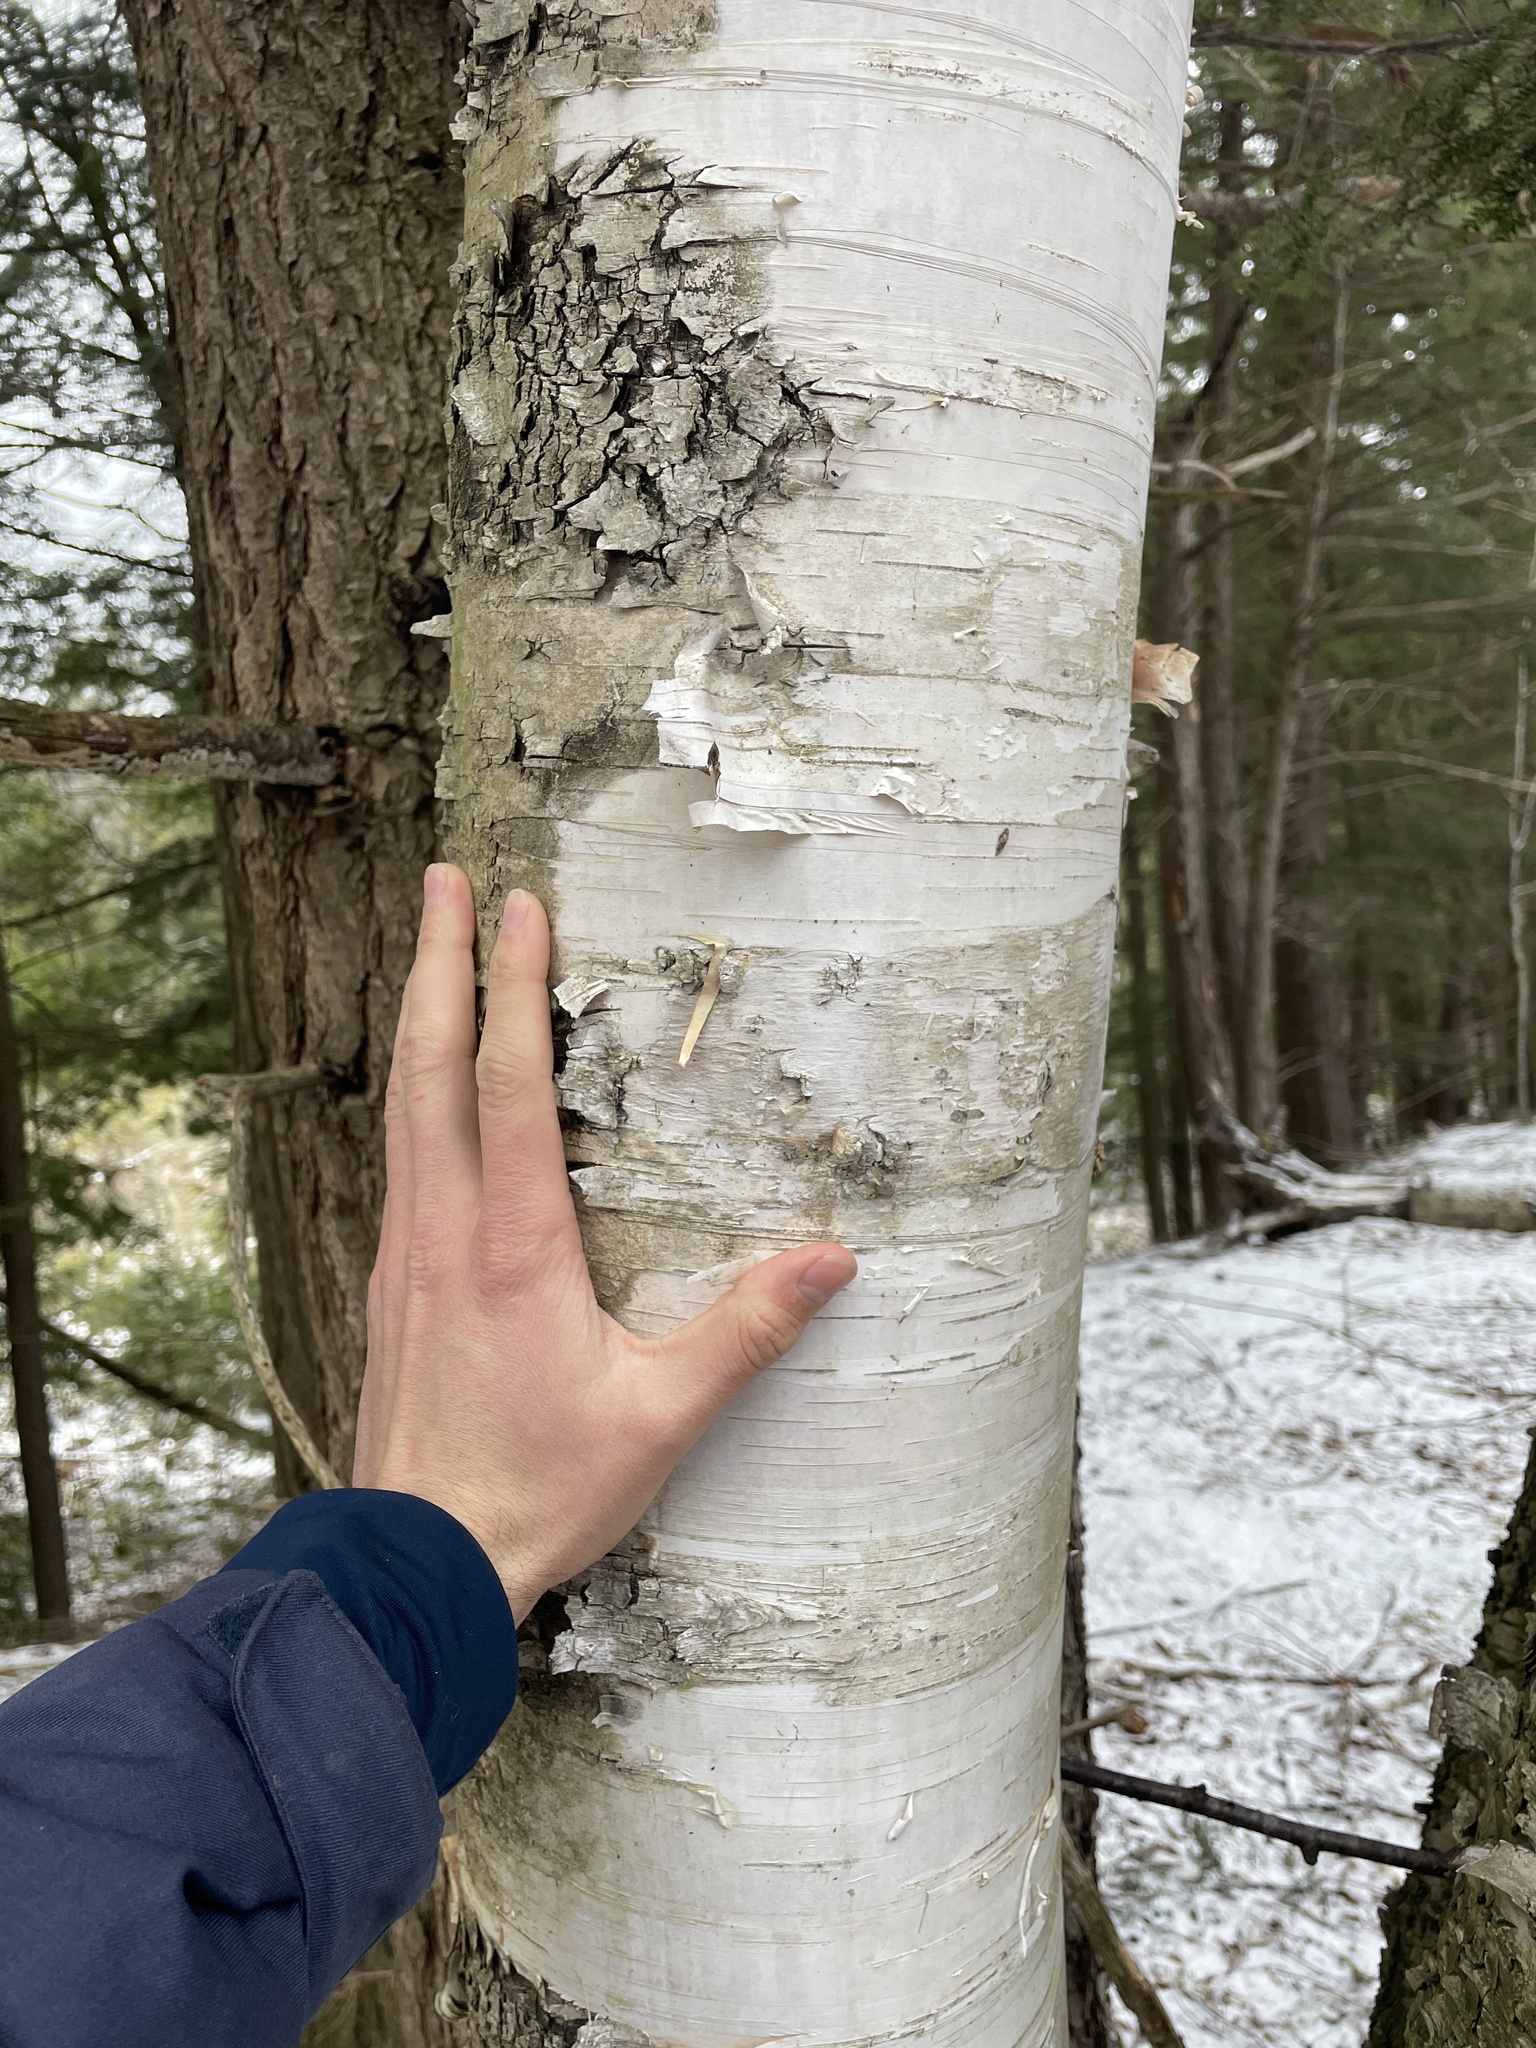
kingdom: Plantae
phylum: Tracheophyta
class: Magnoliopsida
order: Fagales
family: Betulaceae
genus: Betula
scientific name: Betula papyrifera
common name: Paper birch
